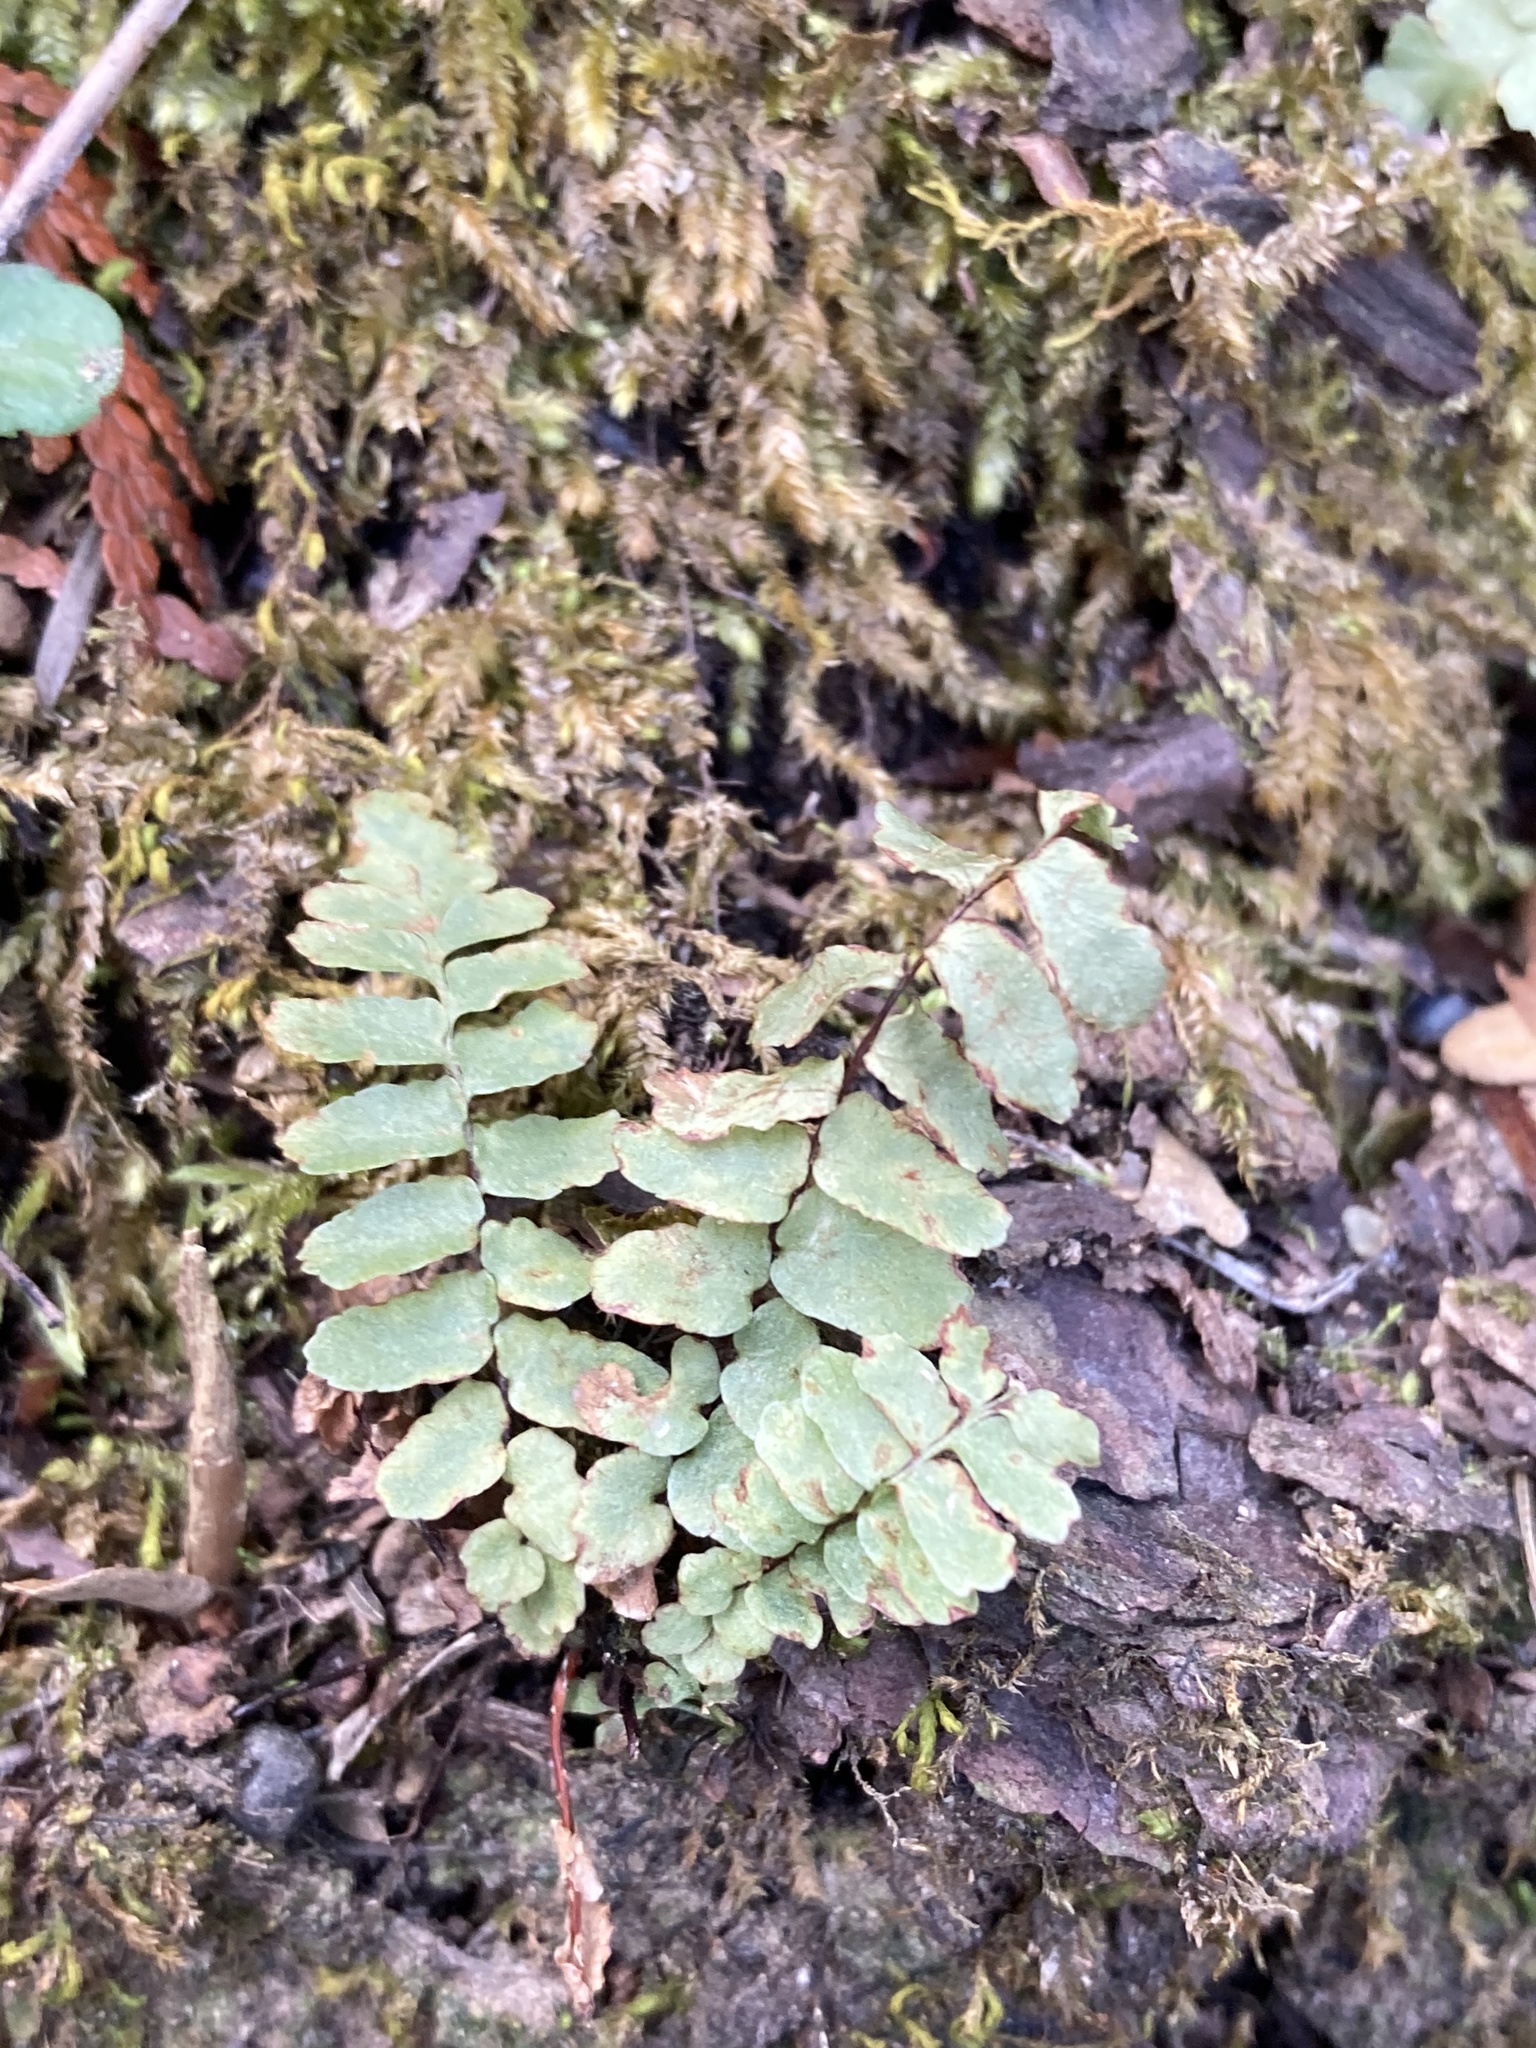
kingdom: Plantae
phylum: Tracheophyta
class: Polypodiopsida
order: Polypodiales
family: Aspleniaceae
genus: Asplenium
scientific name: Asplenium platyneuron
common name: Ebony spleenwort
